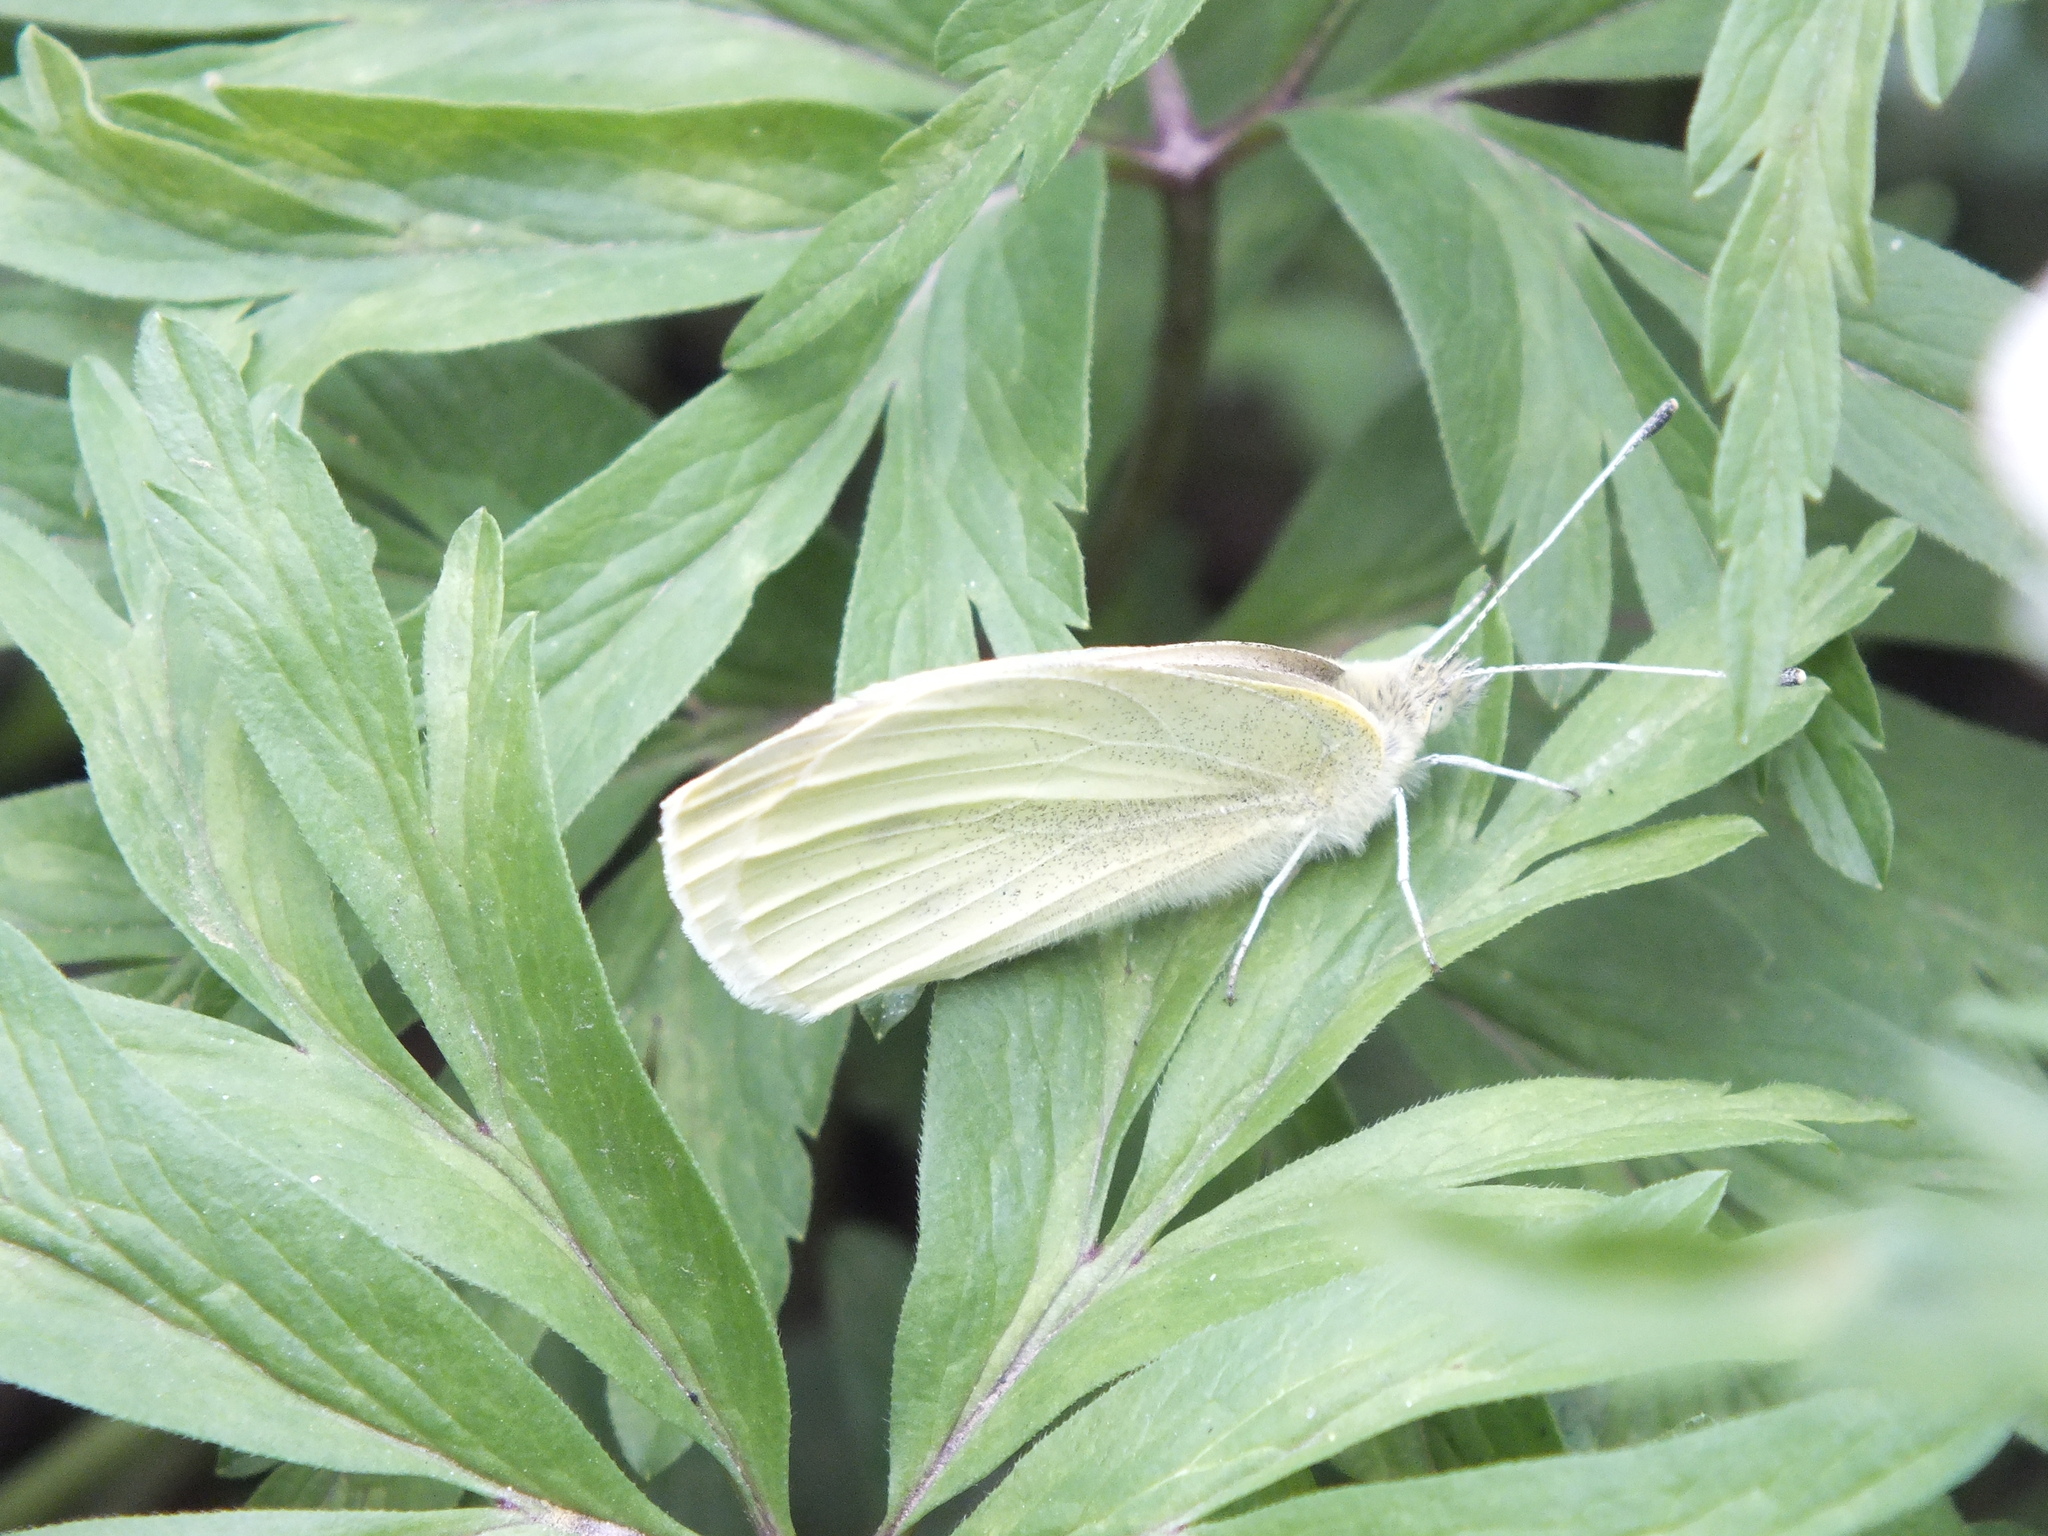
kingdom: Animalia
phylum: Arthropoda
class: Insecta
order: Lepidoptera
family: Pieridae
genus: Pieris
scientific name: Pieris rapae
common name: Small white
